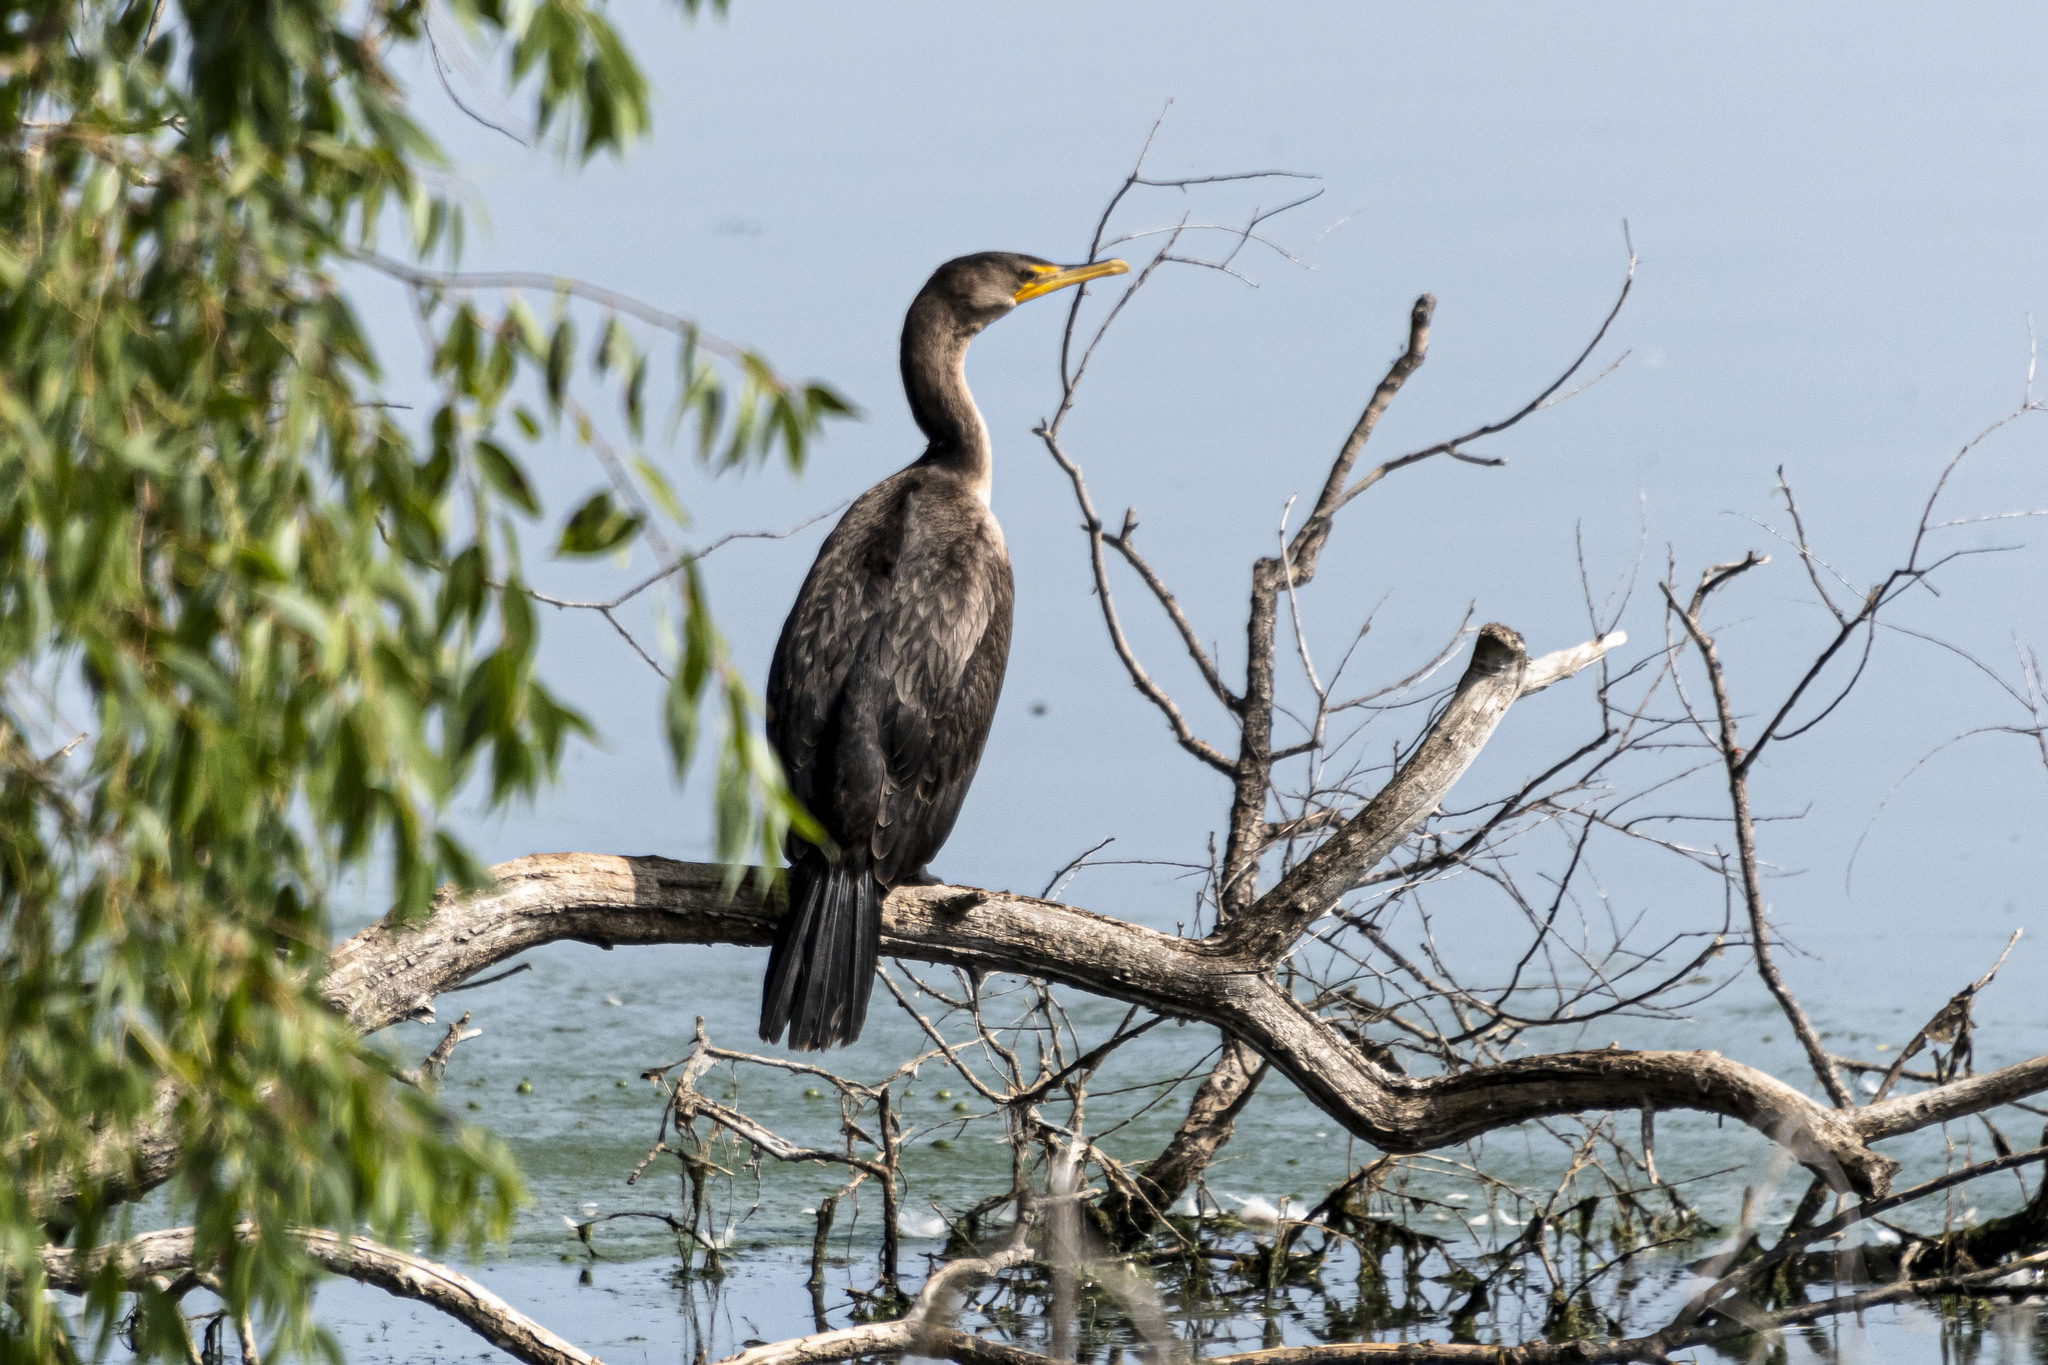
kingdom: Animalia
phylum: Chordata
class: Aves
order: Suliformes
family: Phalacrocoracidae
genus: Phalacrocorax
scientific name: Phalacrocorax auritus
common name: Double-crested cormorant
